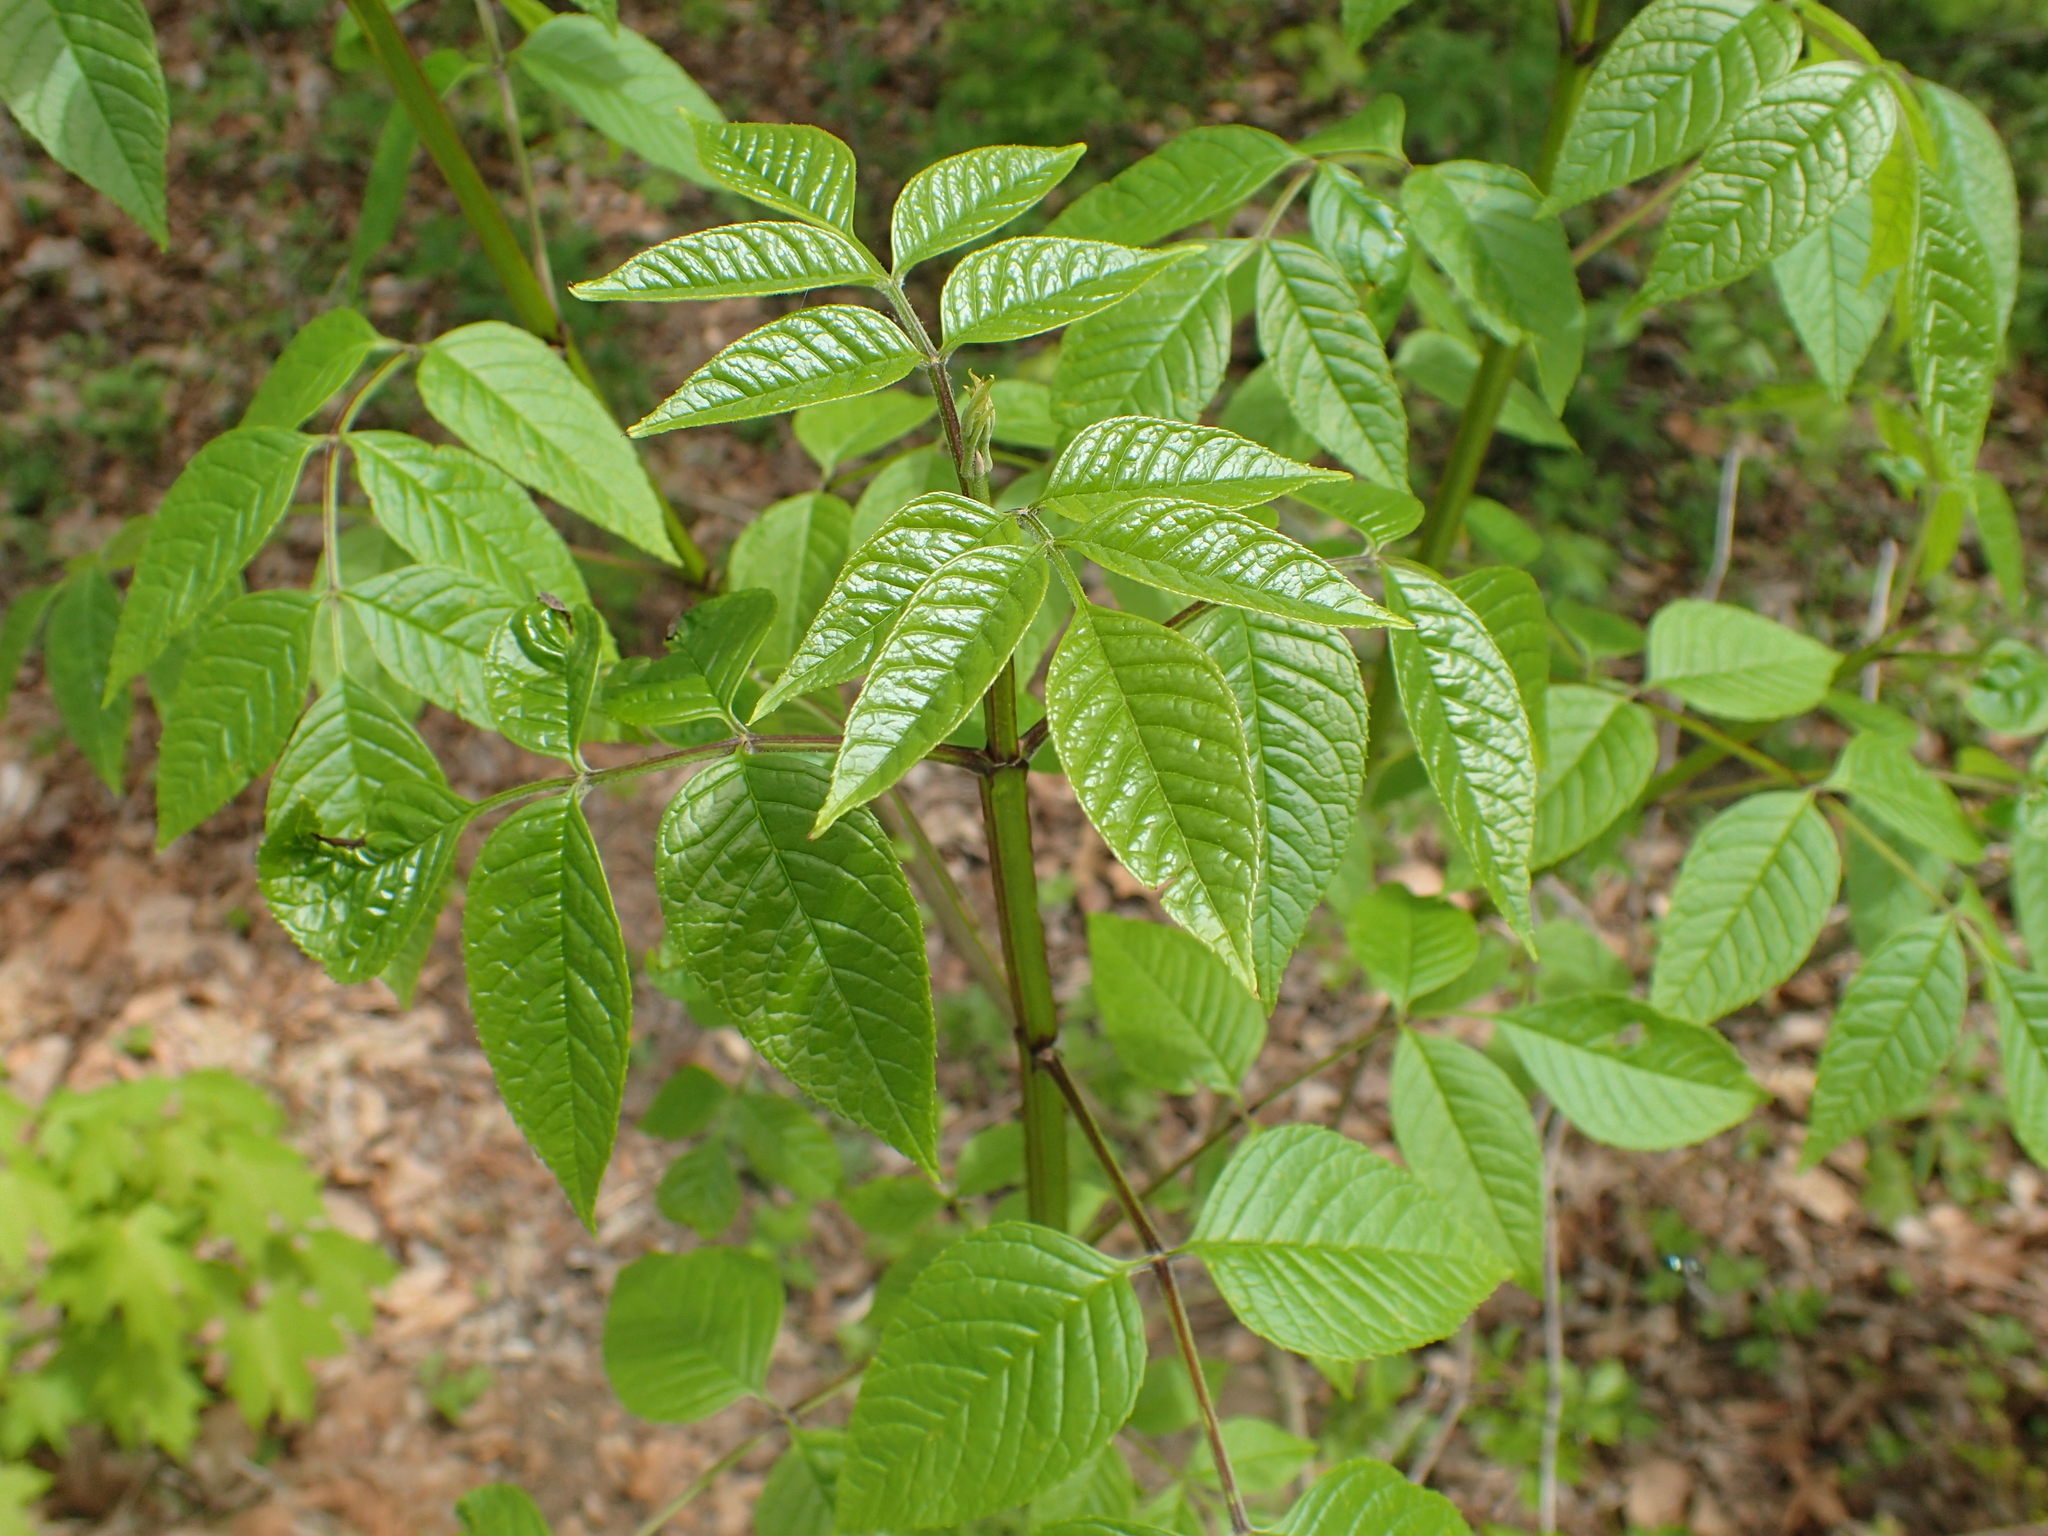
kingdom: Plantae
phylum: Tracheophyta
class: Magnoliopsida
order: Lamiales
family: Oleaceae
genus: Fraxinus
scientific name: Fraxinus quadrangulata
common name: Blue ash
